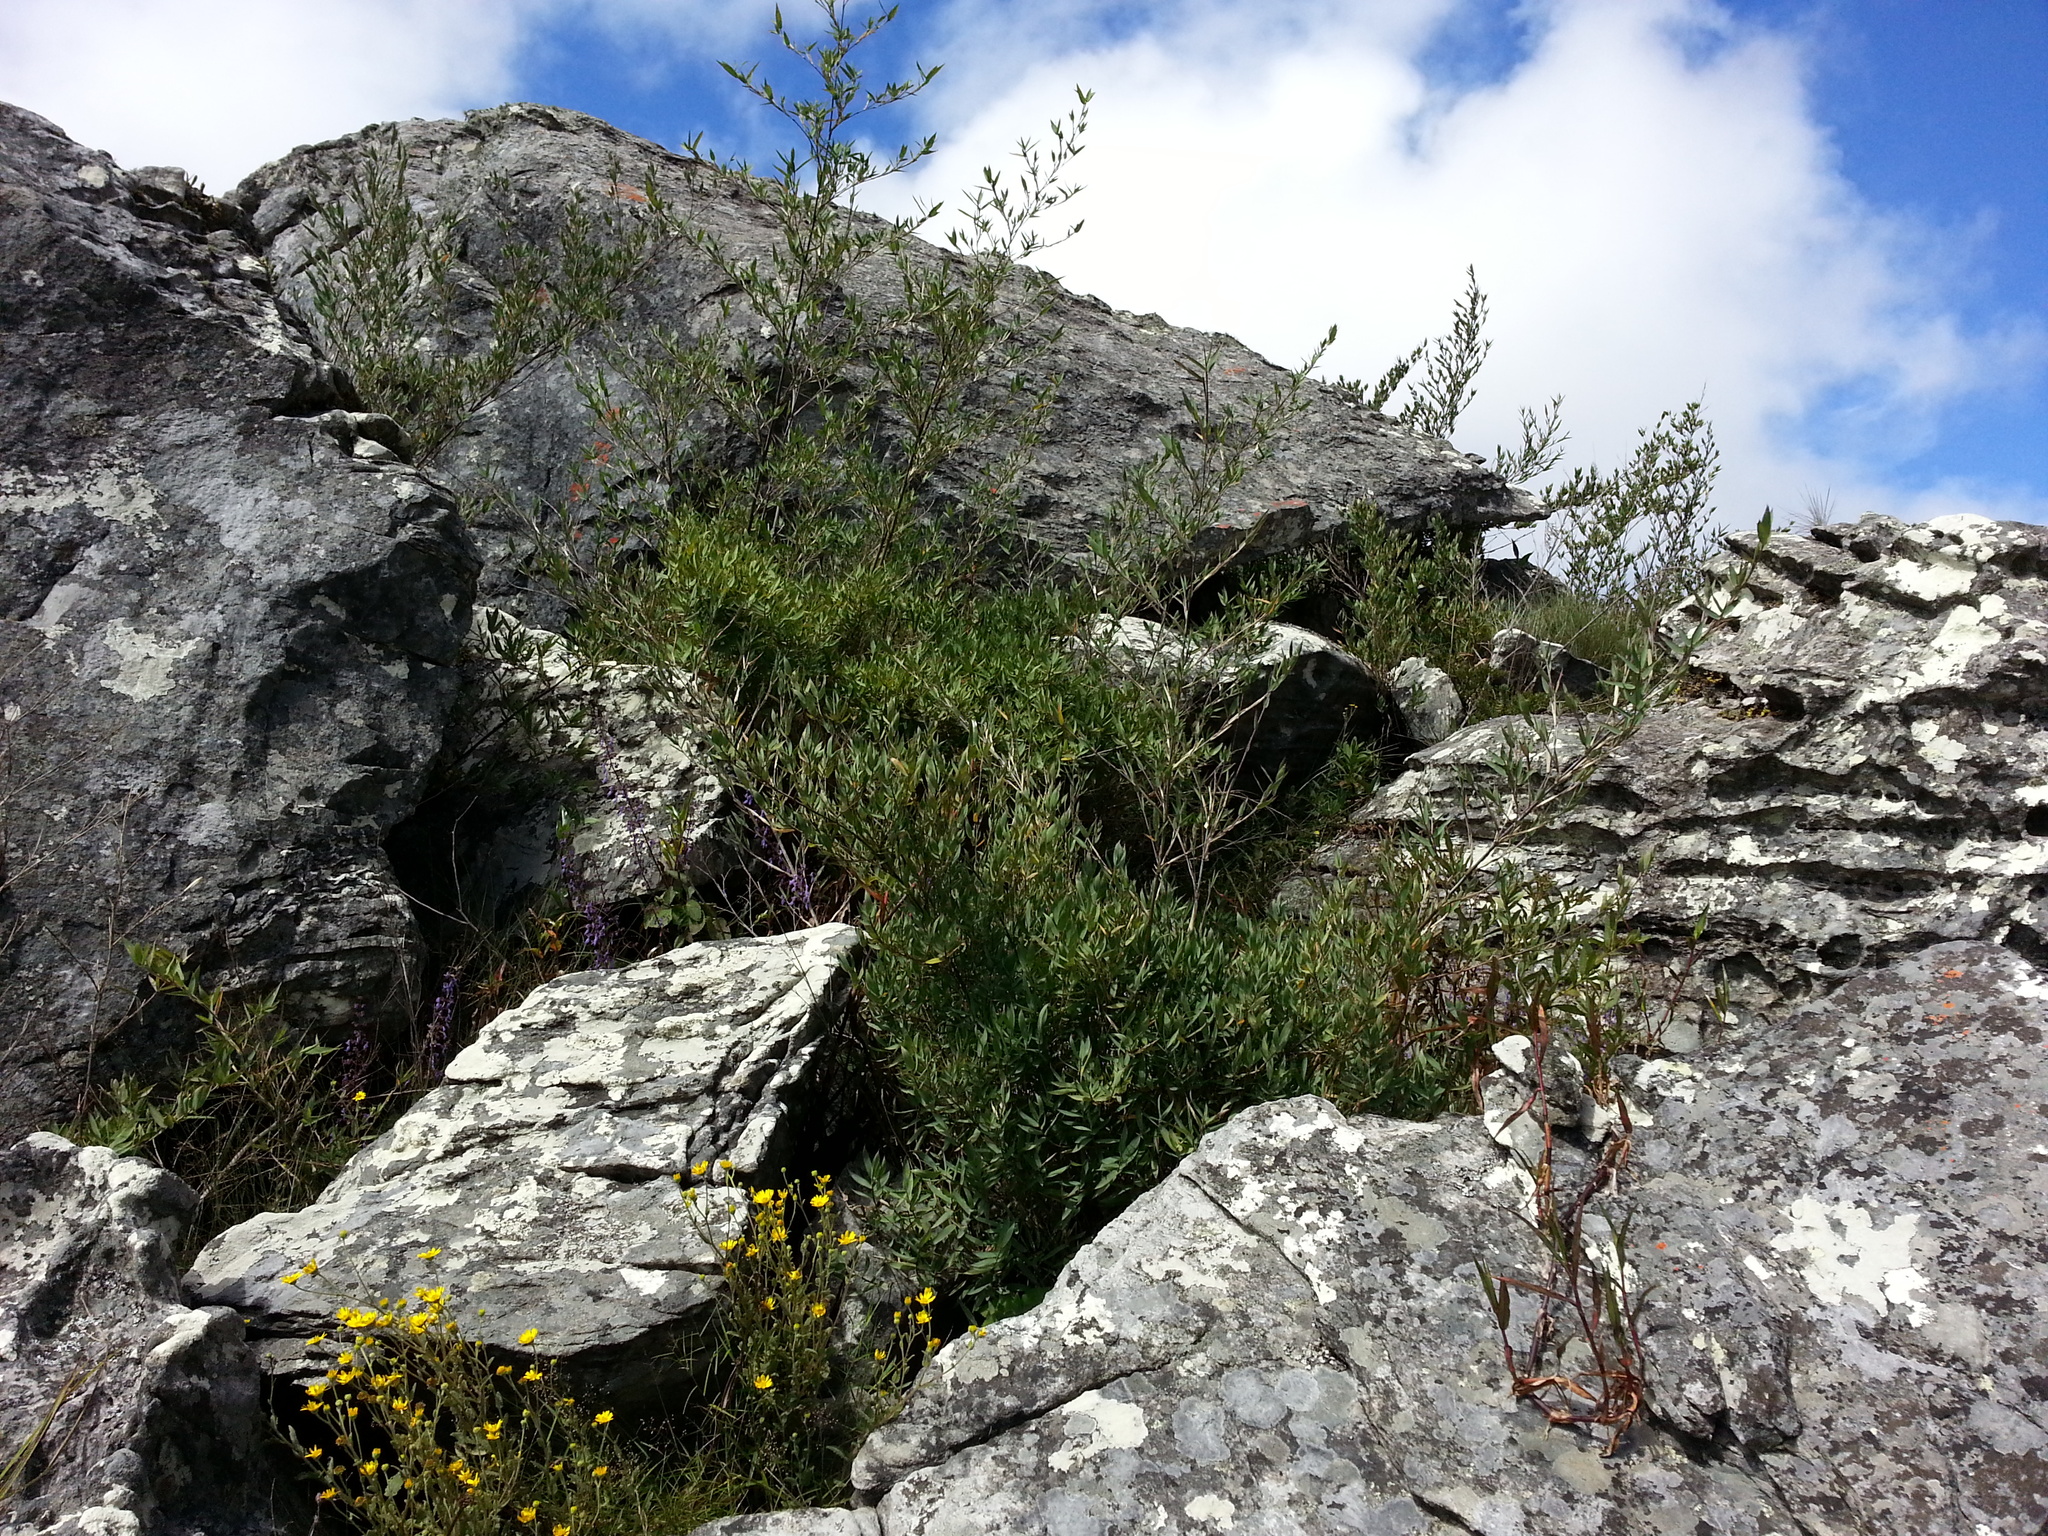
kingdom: Plantae
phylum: Tracheophyta
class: Liliopsida
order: Poales
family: Poaceae
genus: Oldeania
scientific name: Oldeania ibityensis
